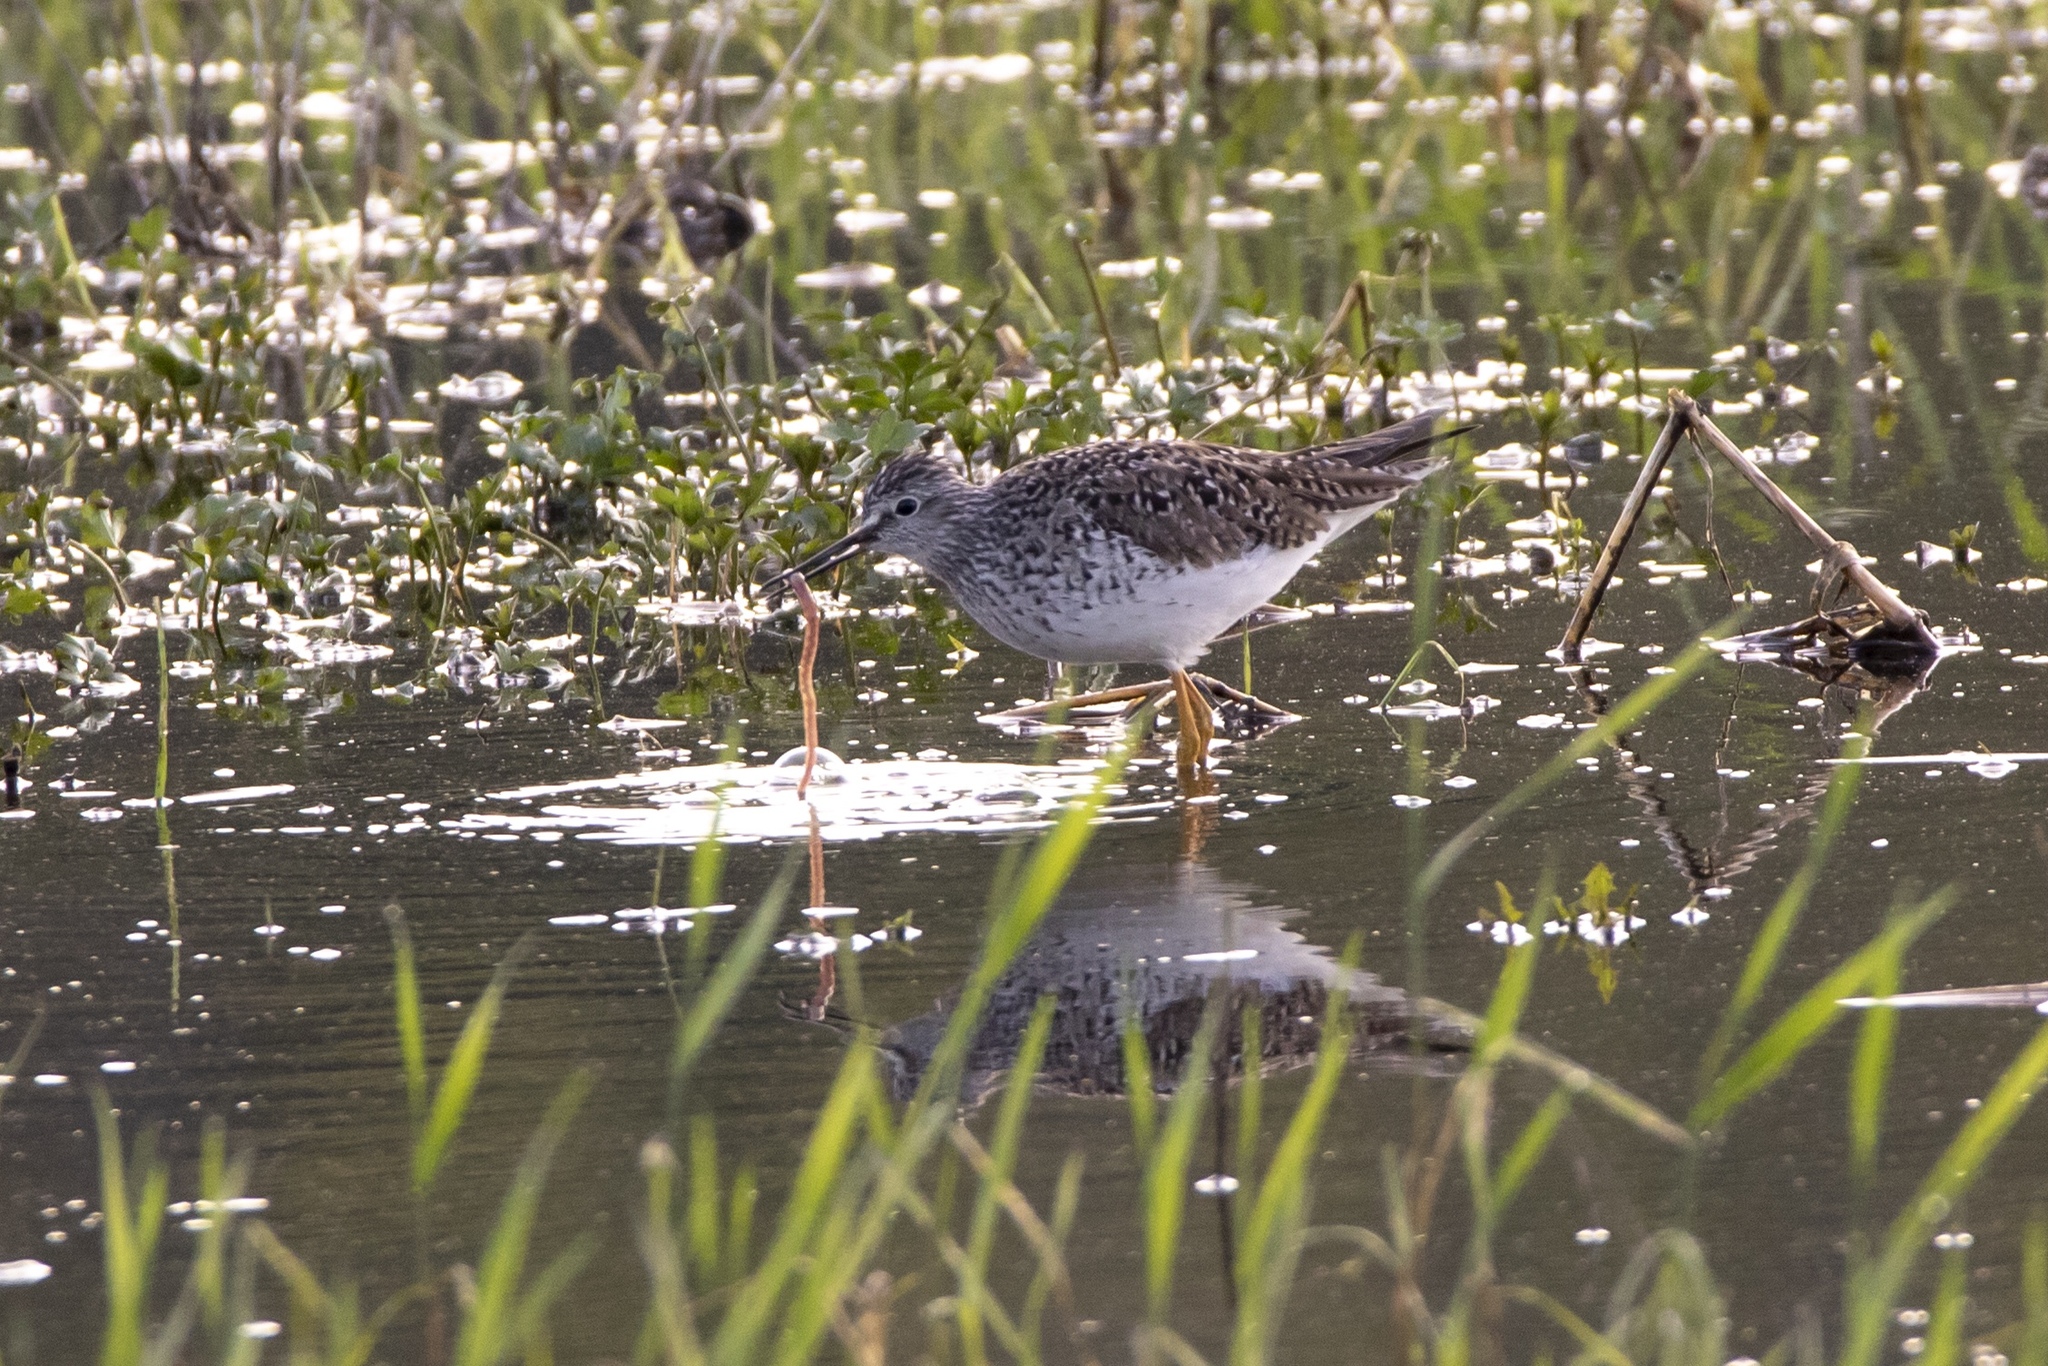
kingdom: Animalia
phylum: Chordata
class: Aves
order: Charadriiformes
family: Scolopacidae
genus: Tringa
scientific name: Tringa melanoleuca
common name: Greater yellowlegs
